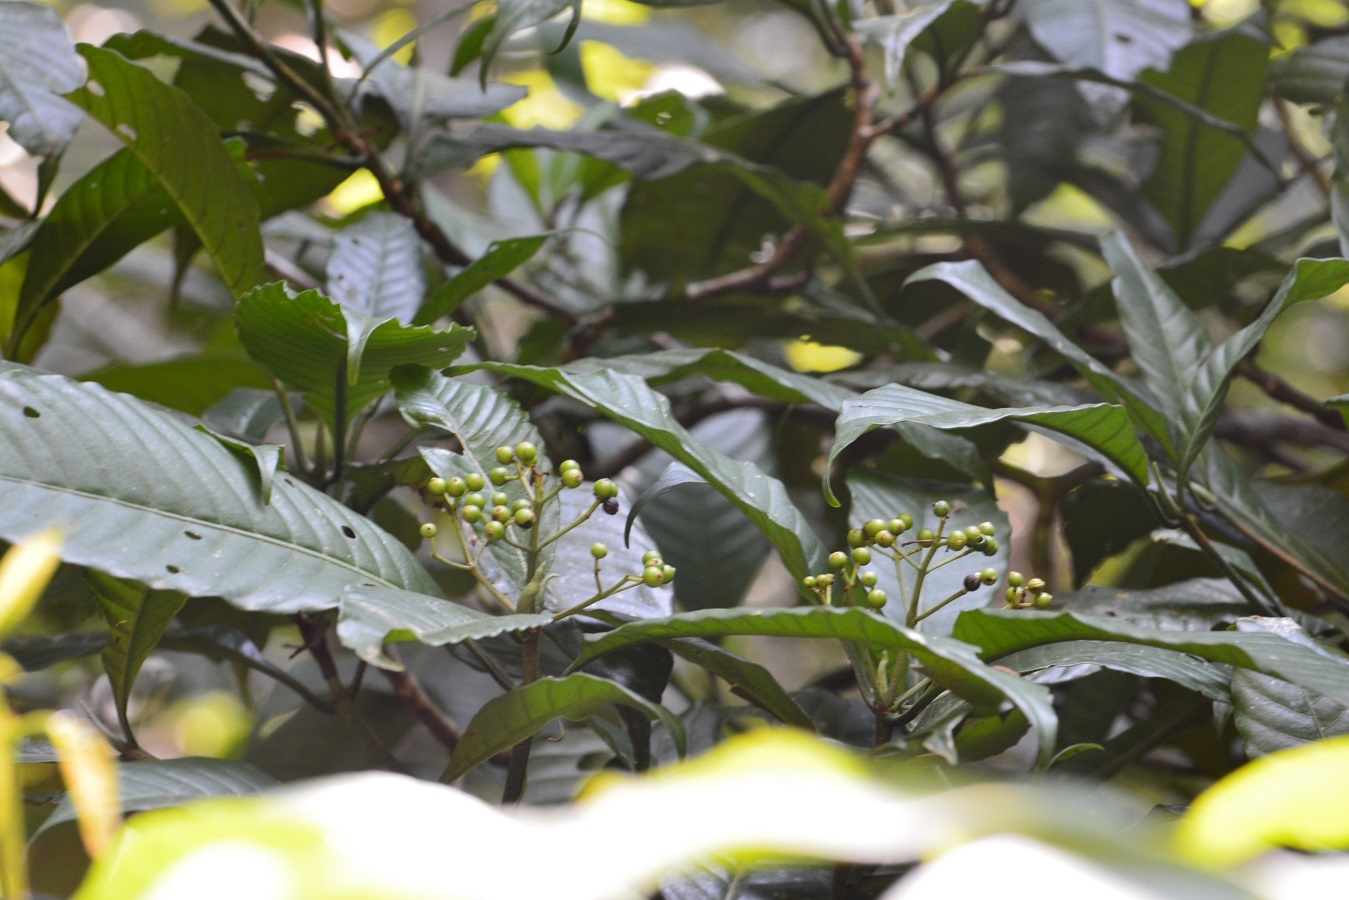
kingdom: Plantae
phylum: Tracheophyta
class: Magnoliopsida
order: Gentianales
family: Rubiaceae
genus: Palicourea
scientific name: Palicourea violacea
